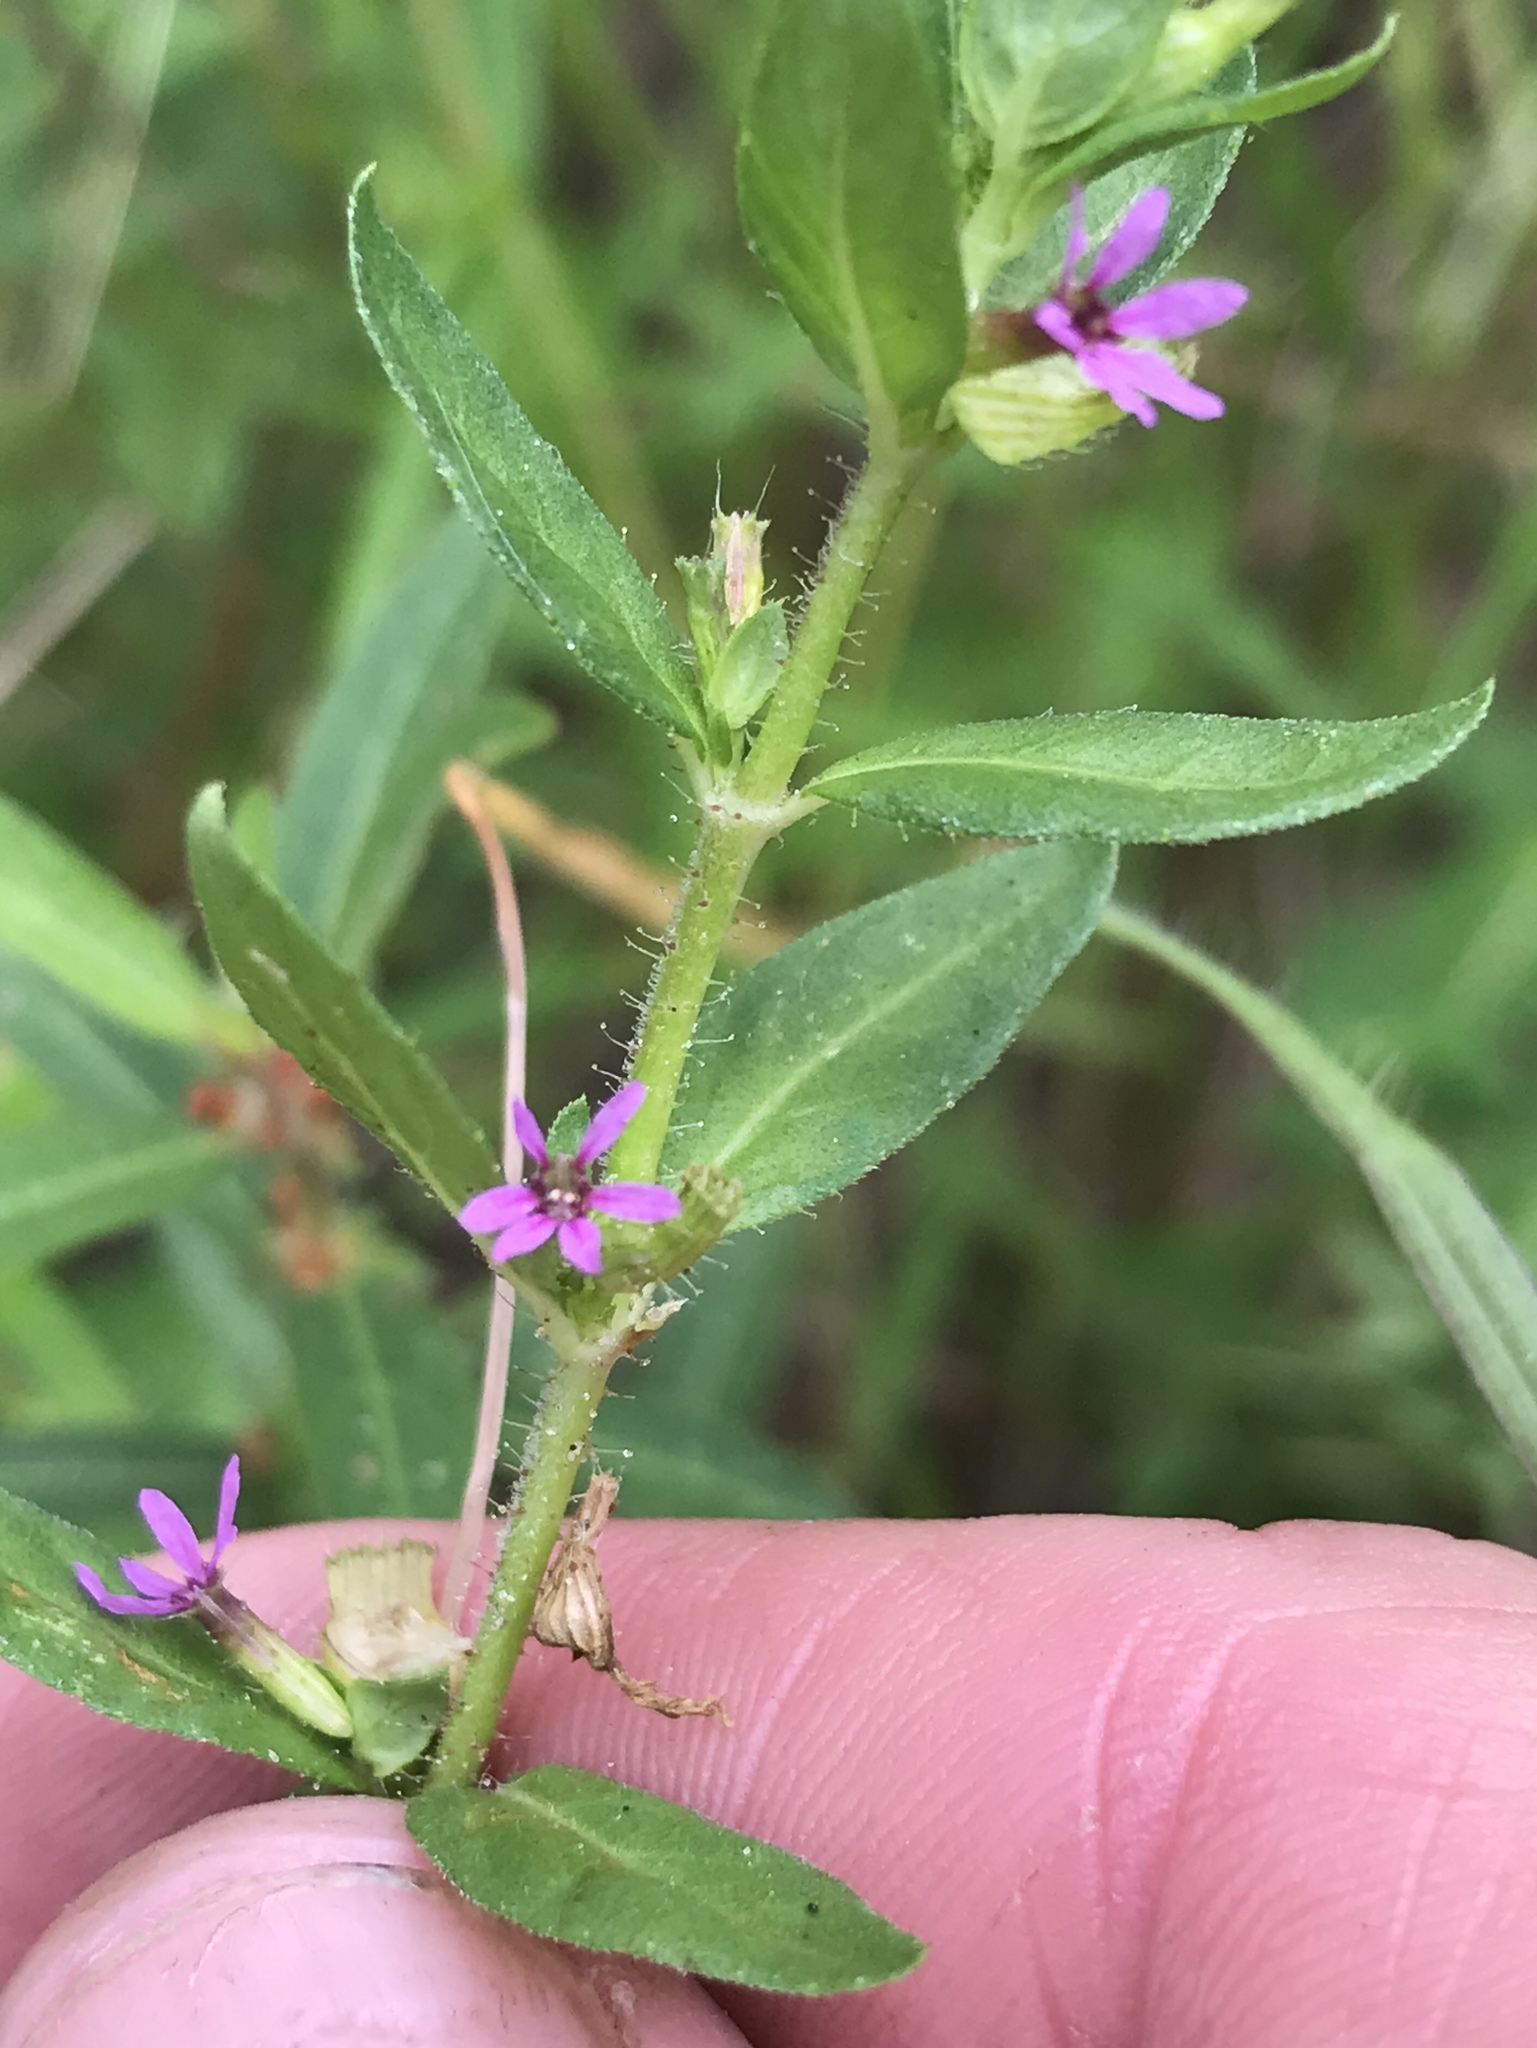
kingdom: Plantae
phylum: Tracheophyta
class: Magnoliopsida
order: Myrtales
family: Lythraceae
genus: Cuphea
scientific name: Cuphea carthagenensis
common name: Colombian waxweed
